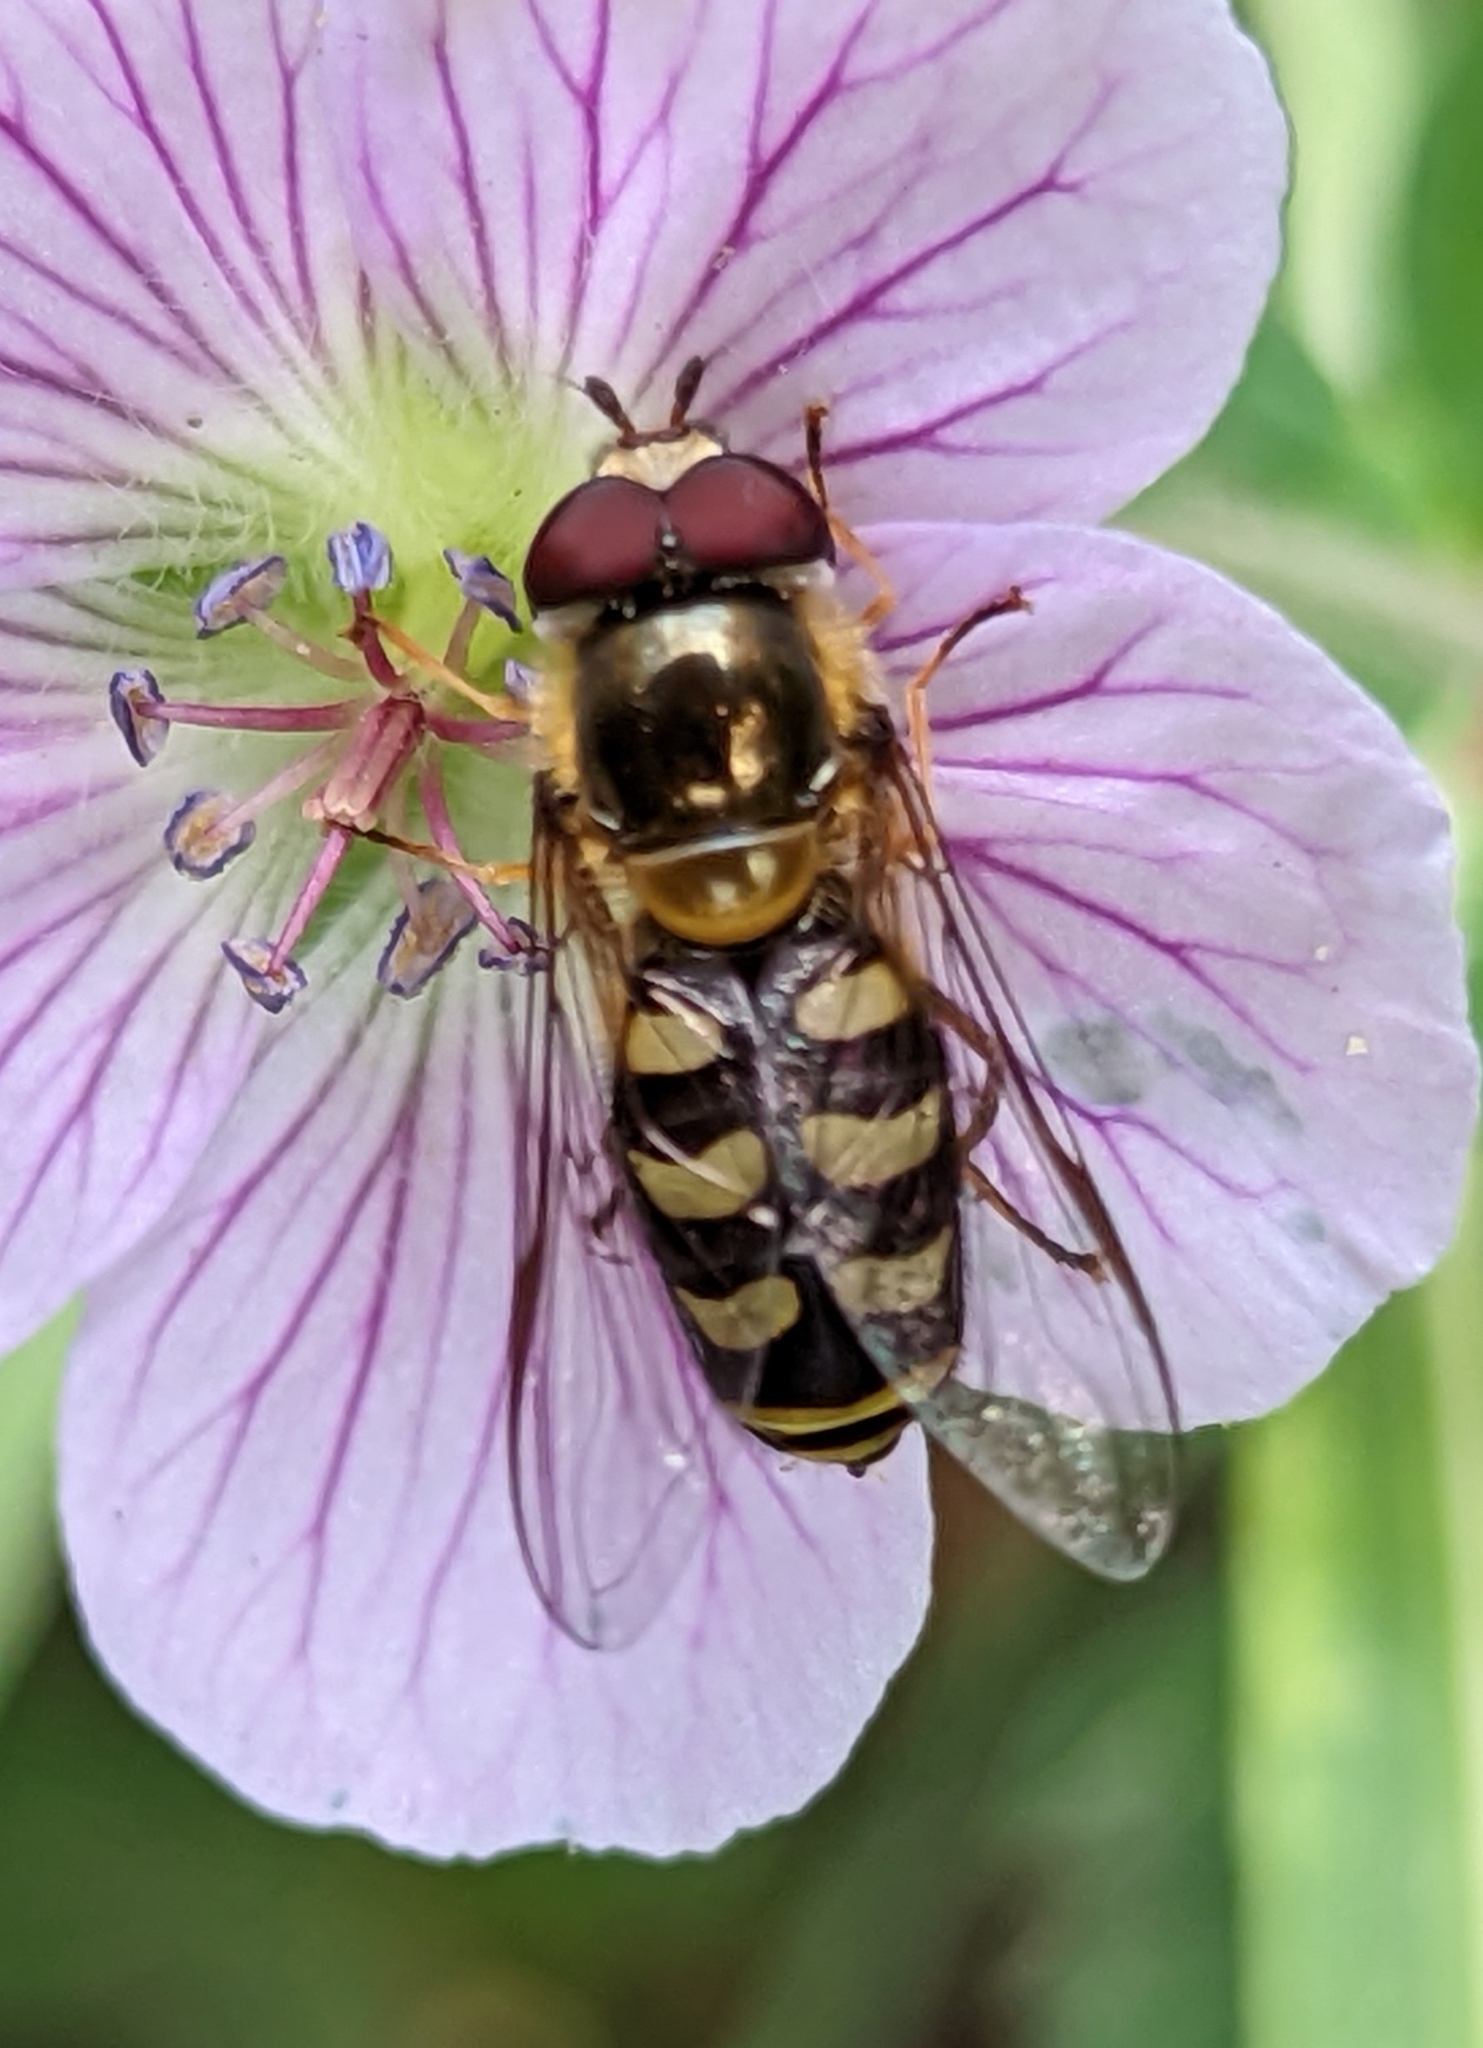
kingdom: Animalia
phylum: Arthropoda
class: Insecta
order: Diptera
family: Syrphidae
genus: Lapposyrphus
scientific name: Lapposyrphus lapponicus
